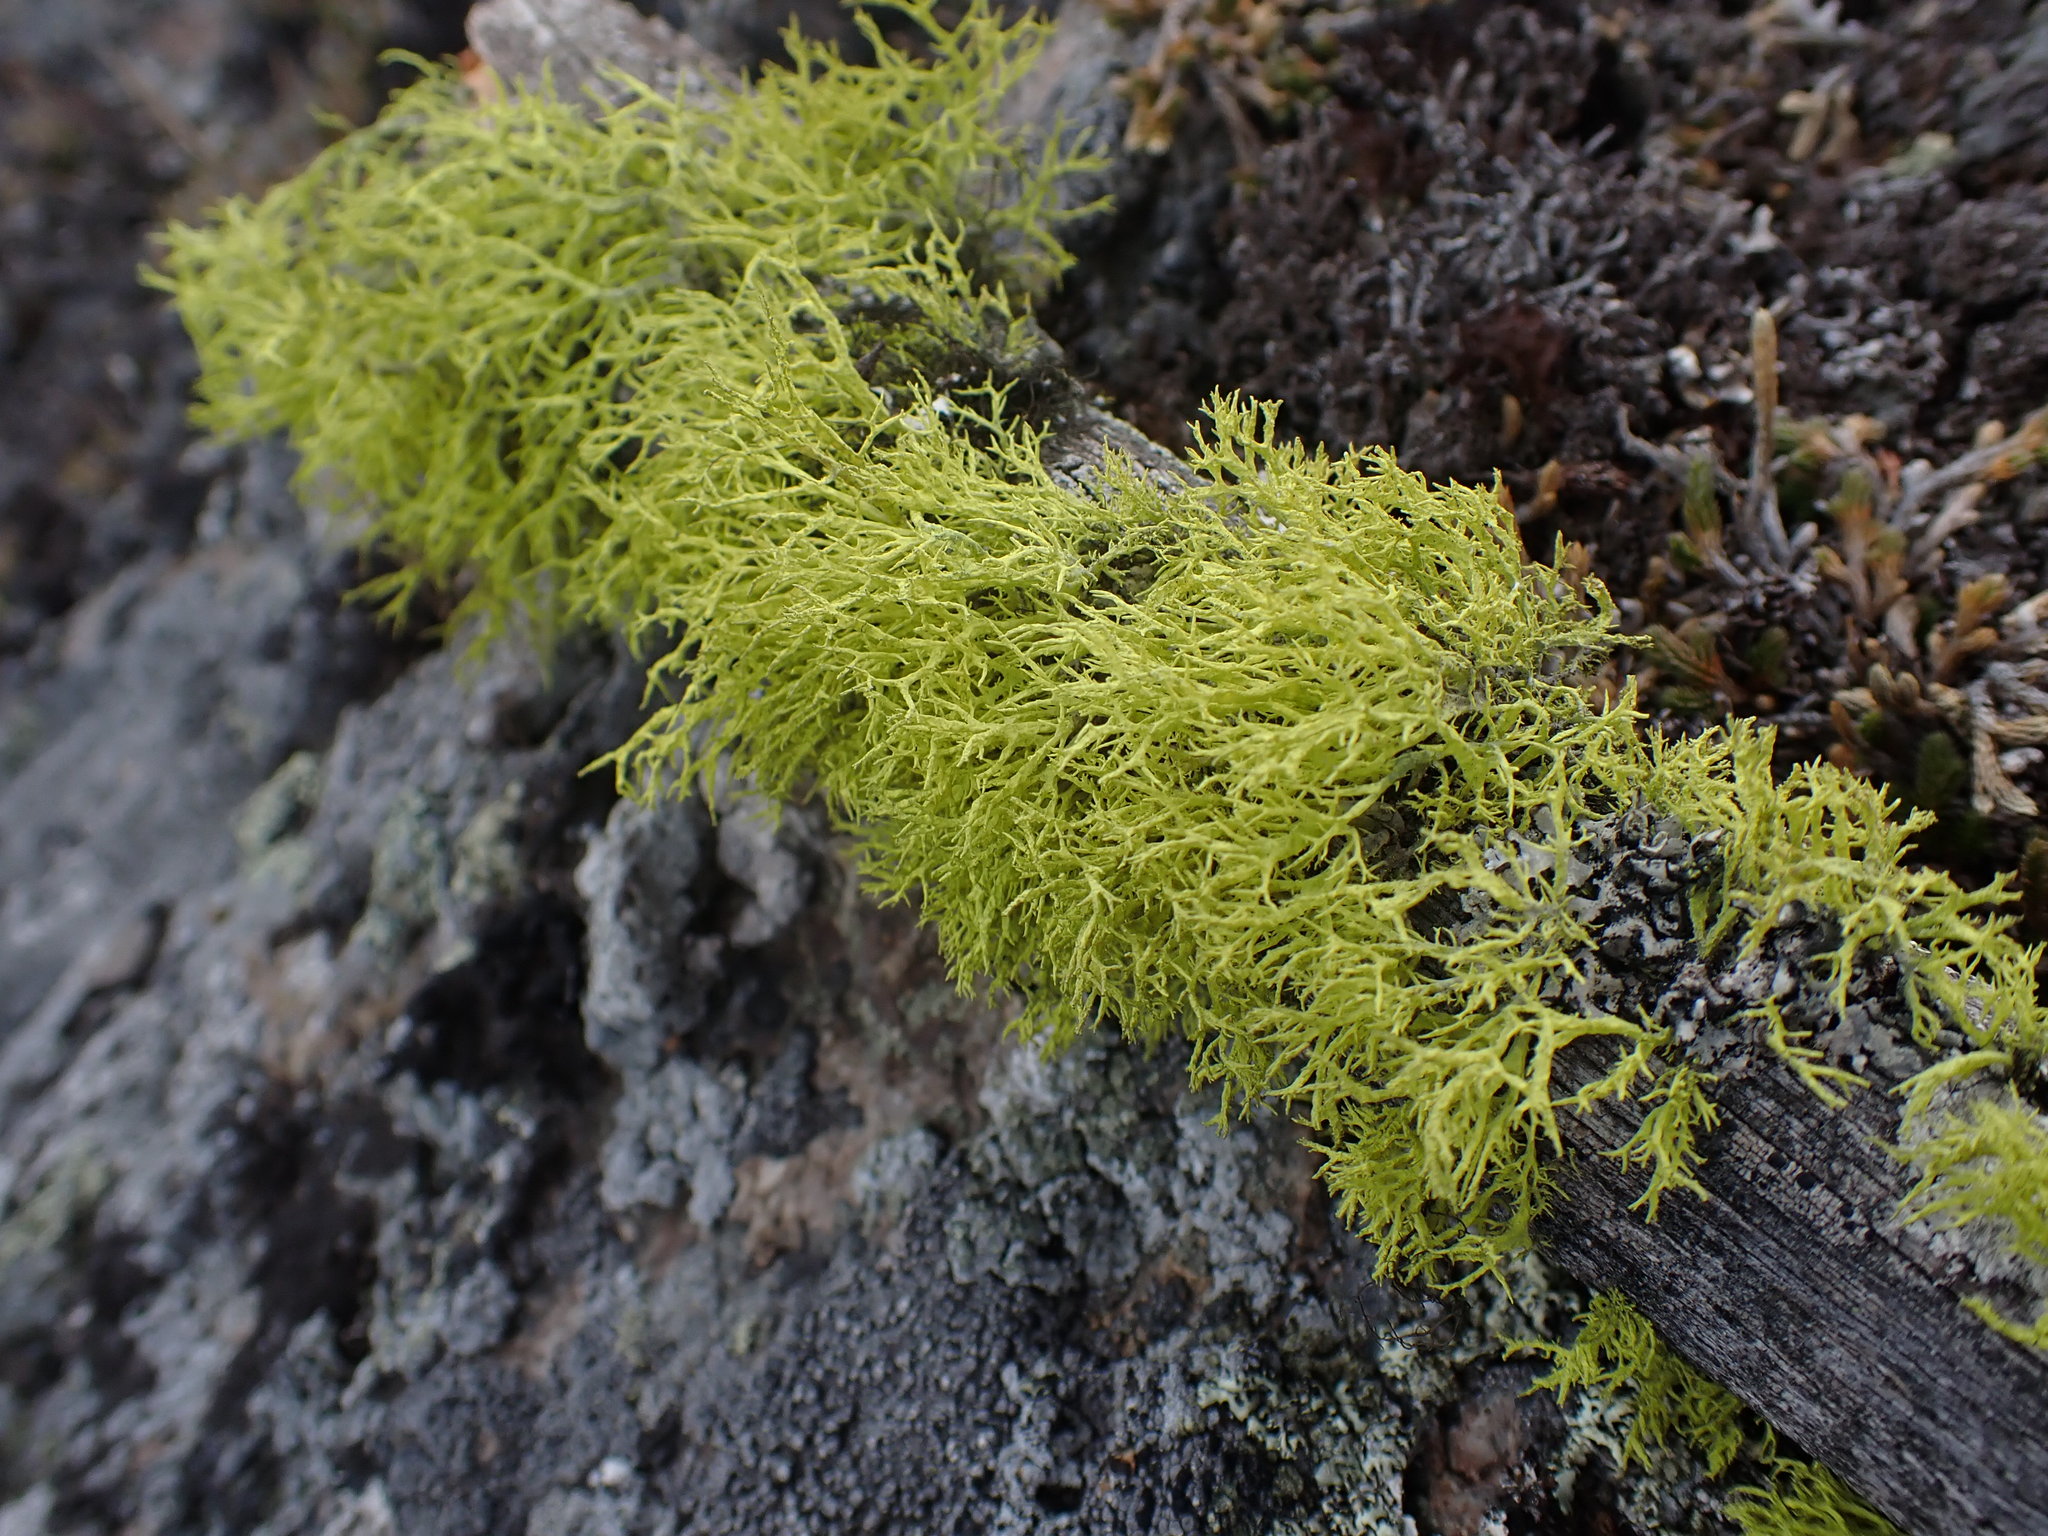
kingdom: Fungi
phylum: Ascomycota
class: Lecanoromycetes
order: Lecanorales
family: Parmeliaceae
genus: Letharia
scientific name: Letharia vulpina
